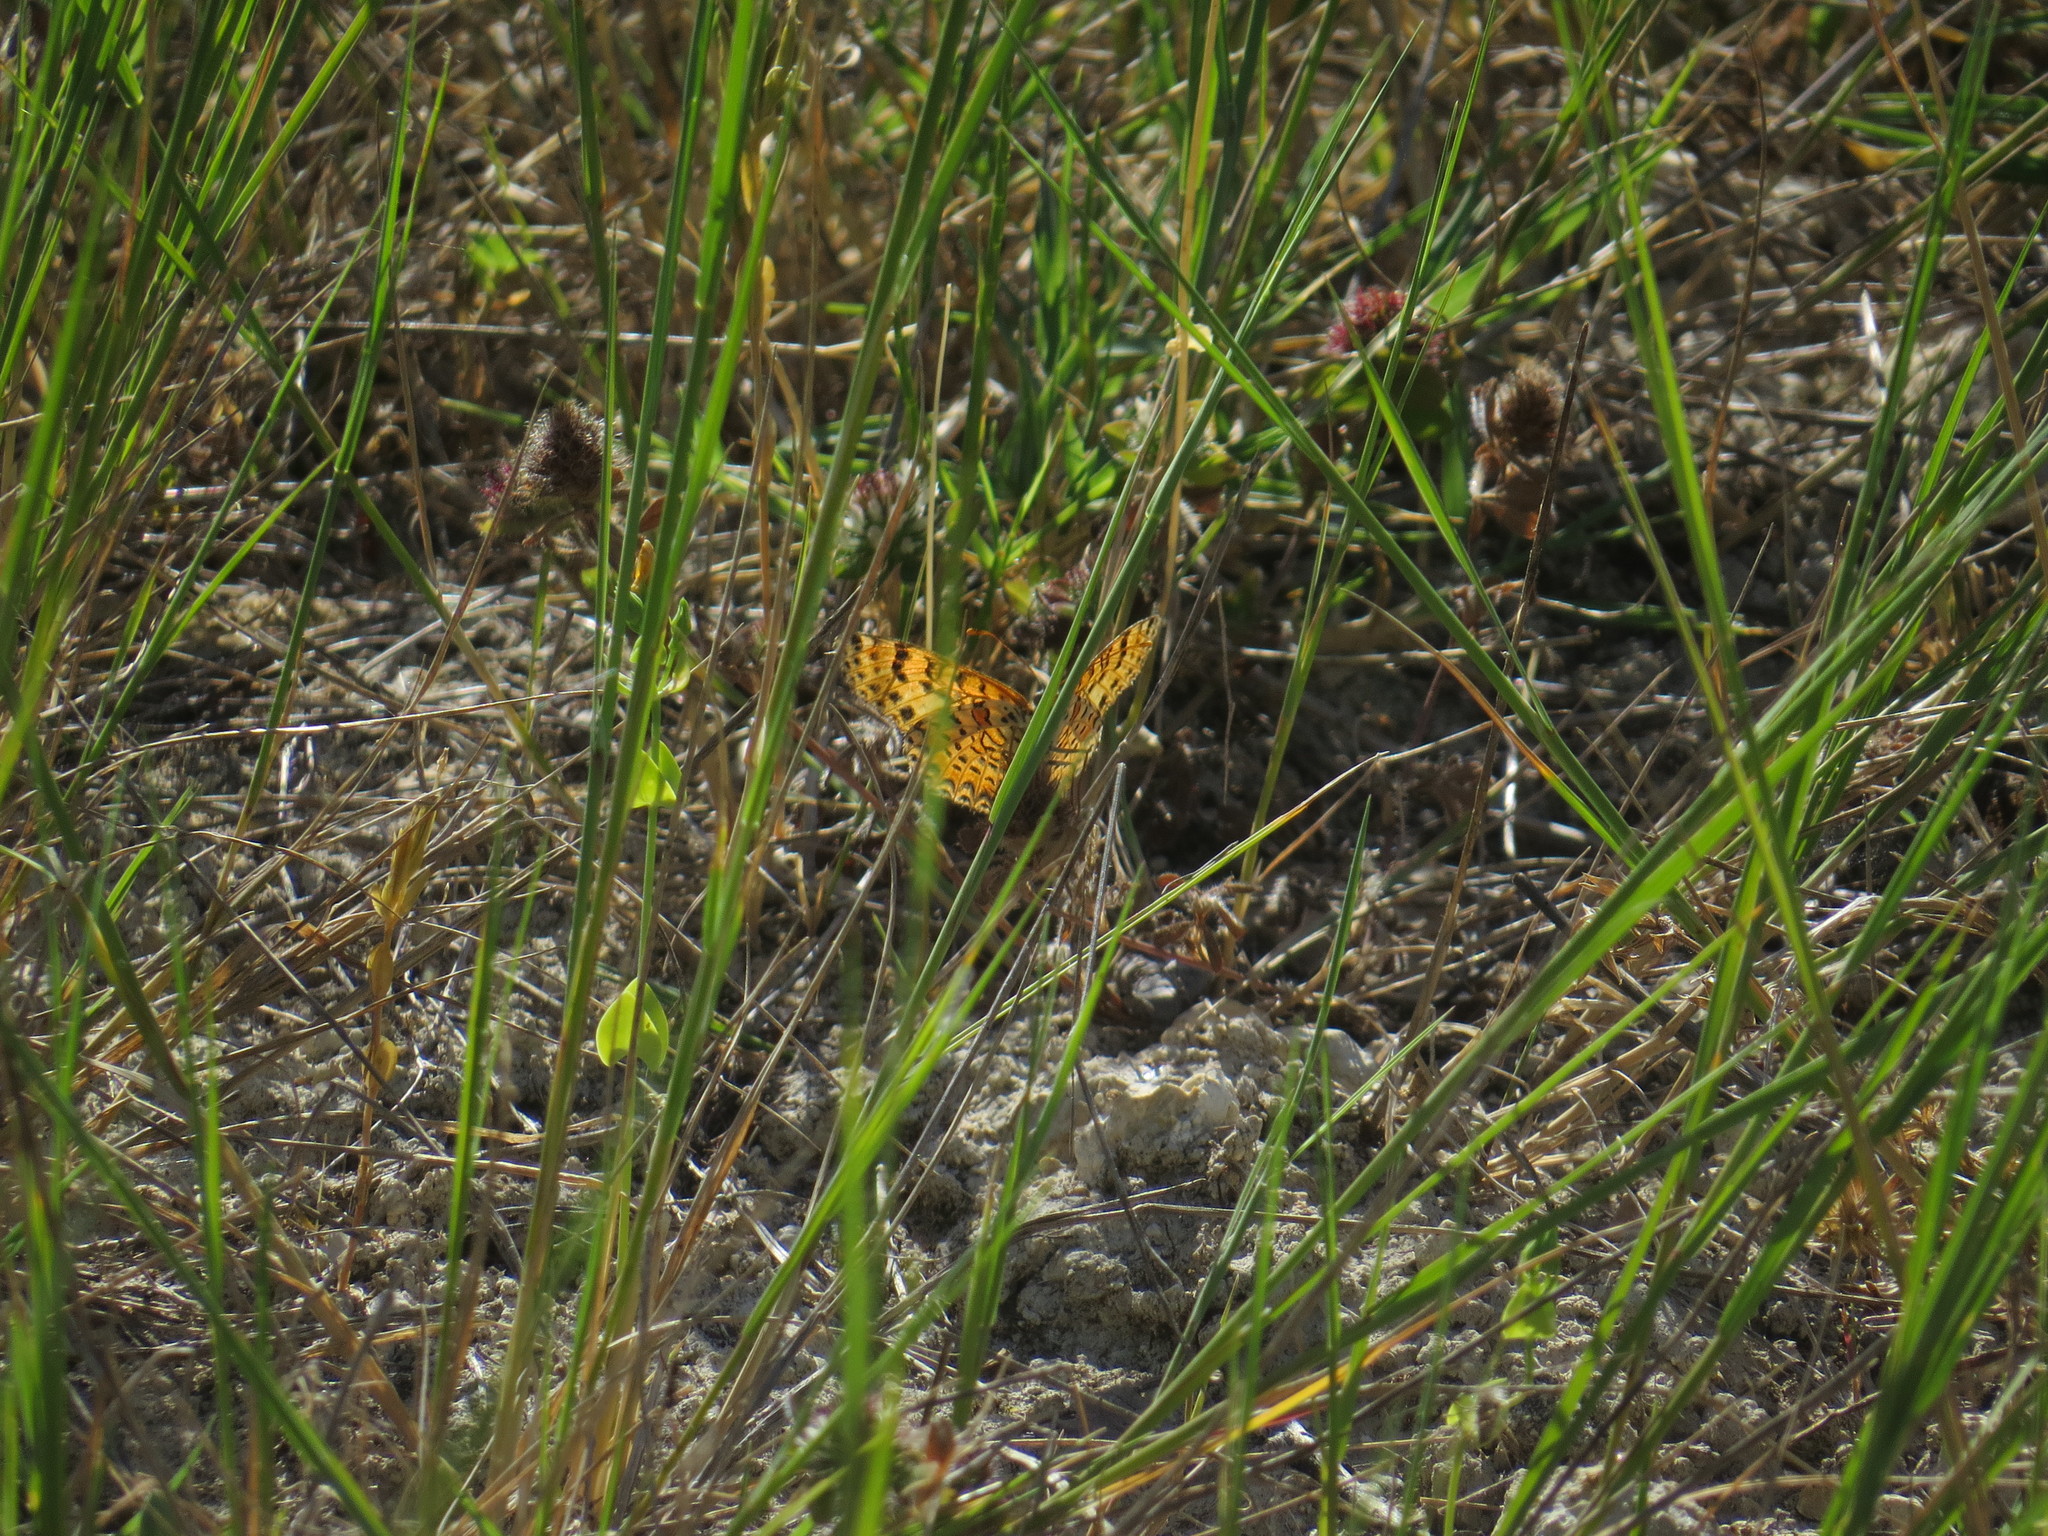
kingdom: Animalia
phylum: Arthropoda
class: Insecta
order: Lepidoptera
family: Nymphalidae
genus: Melitaea
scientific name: Melitaea didyma
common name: Spotted fritillary
